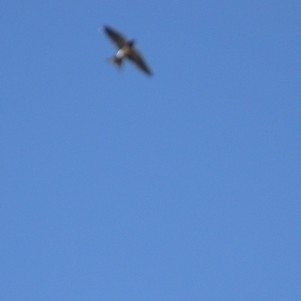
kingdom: Animalia
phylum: Chordata
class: Aves
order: Passeriformes
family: Hirundinidae
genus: Delichon
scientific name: Delichon urbicum
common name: Common house martin
